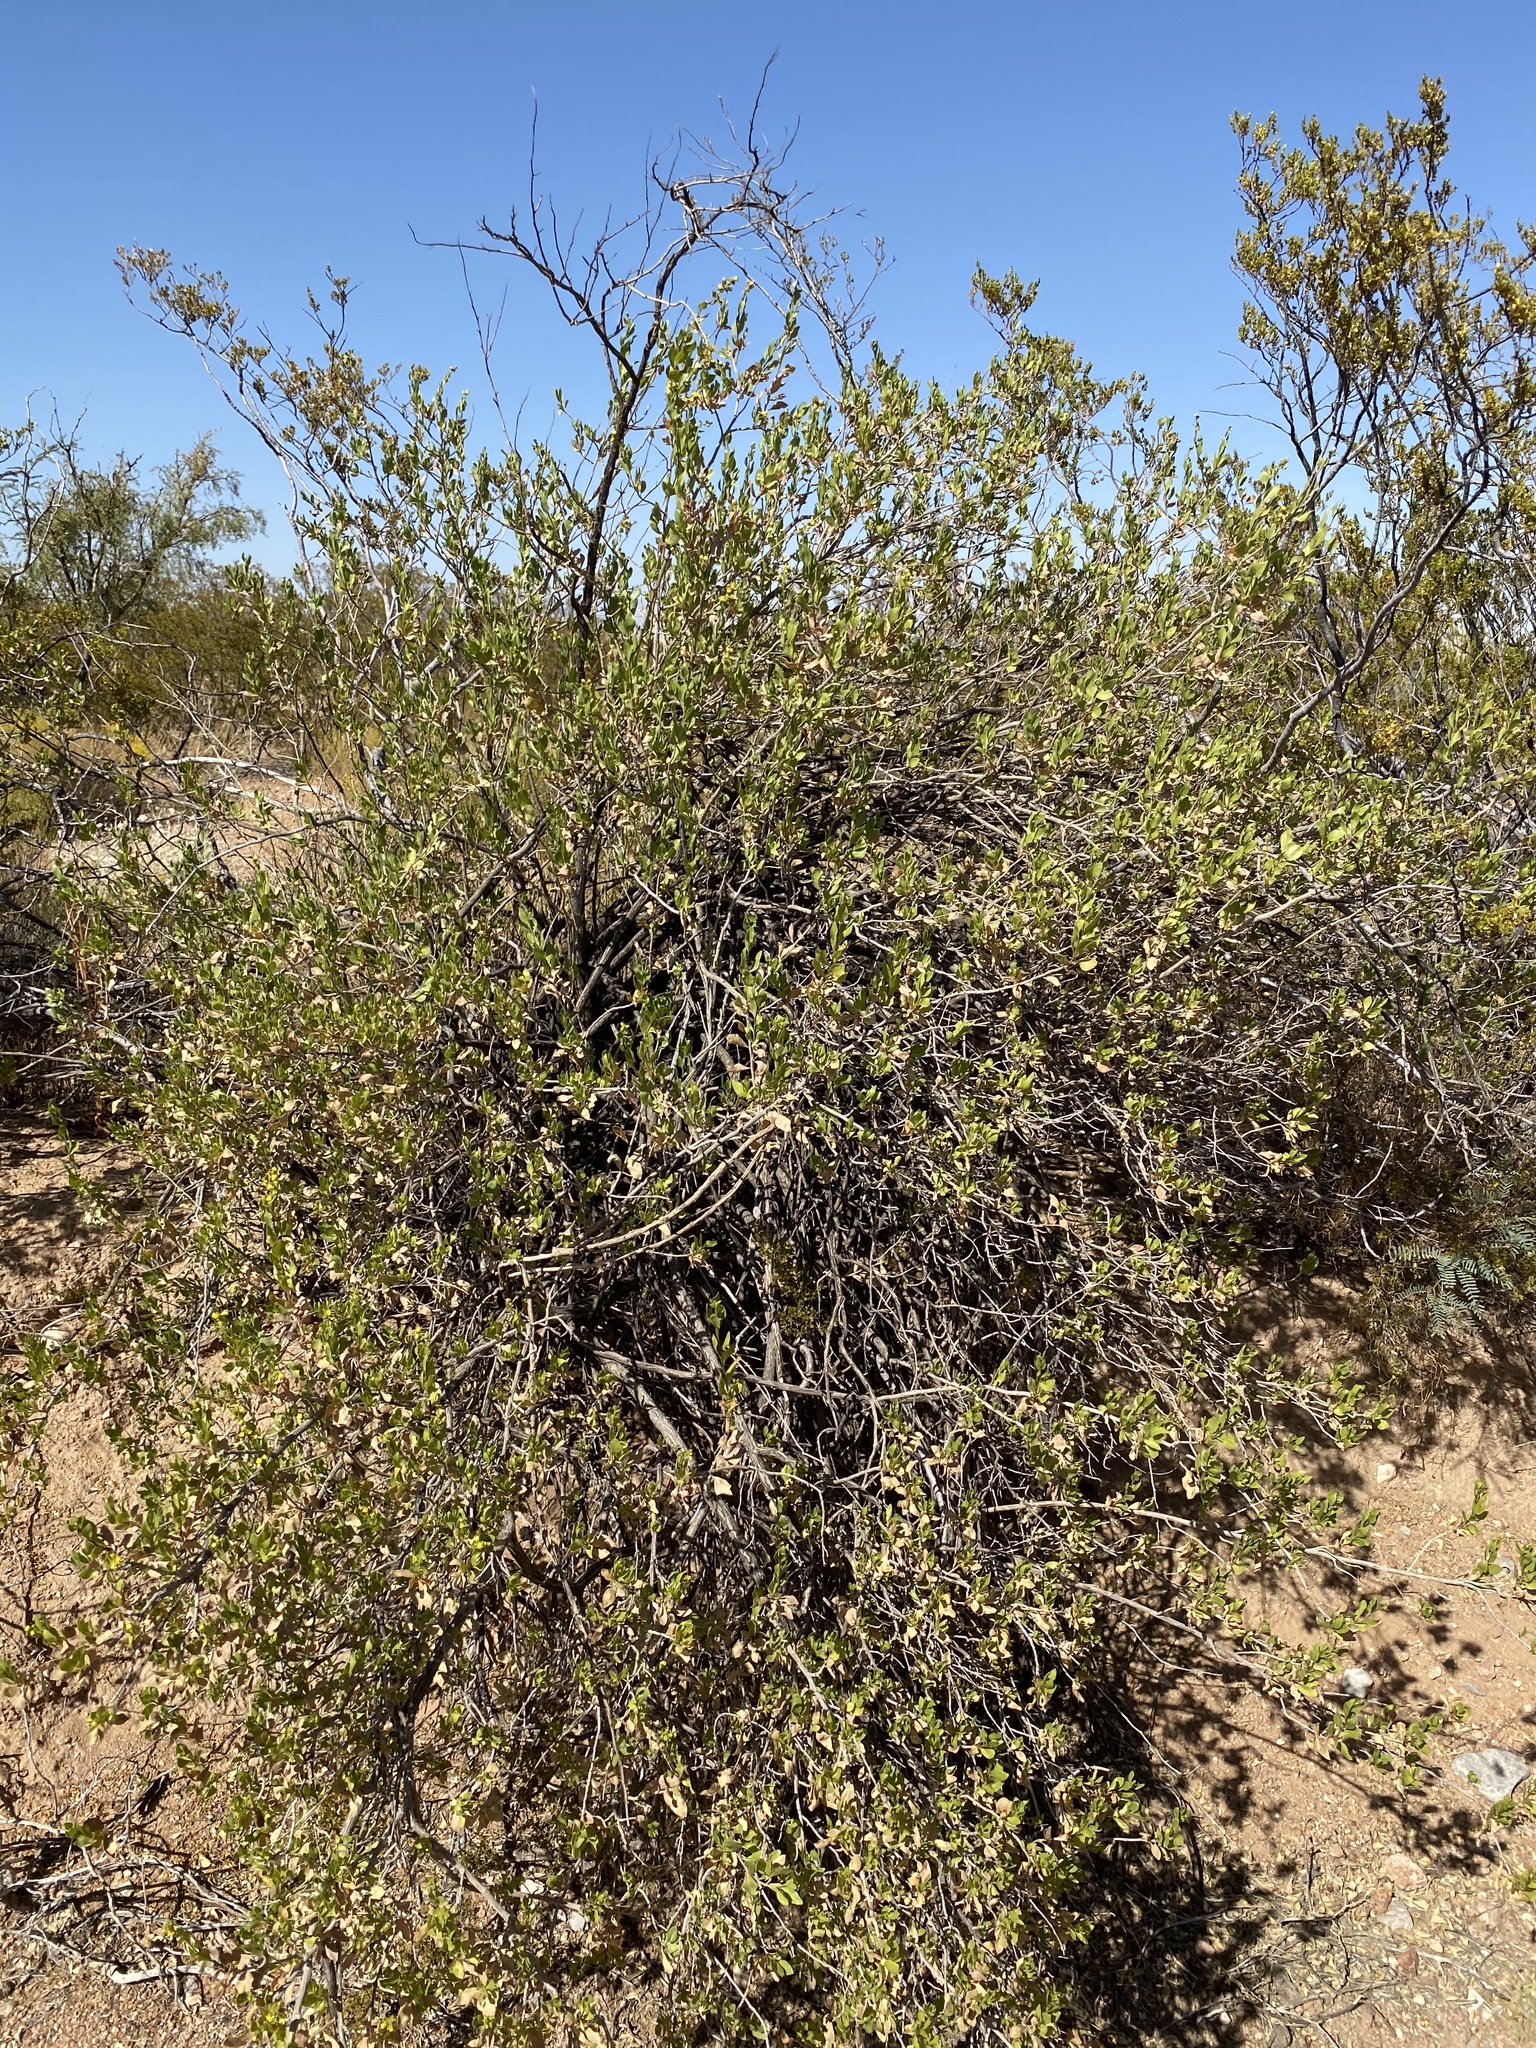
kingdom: Plantae
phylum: Tracheophyta
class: Magnoliopsida
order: Asterales
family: Asteraceae
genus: Flourensia
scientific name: Flourensia cernua
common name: Varnishbush
